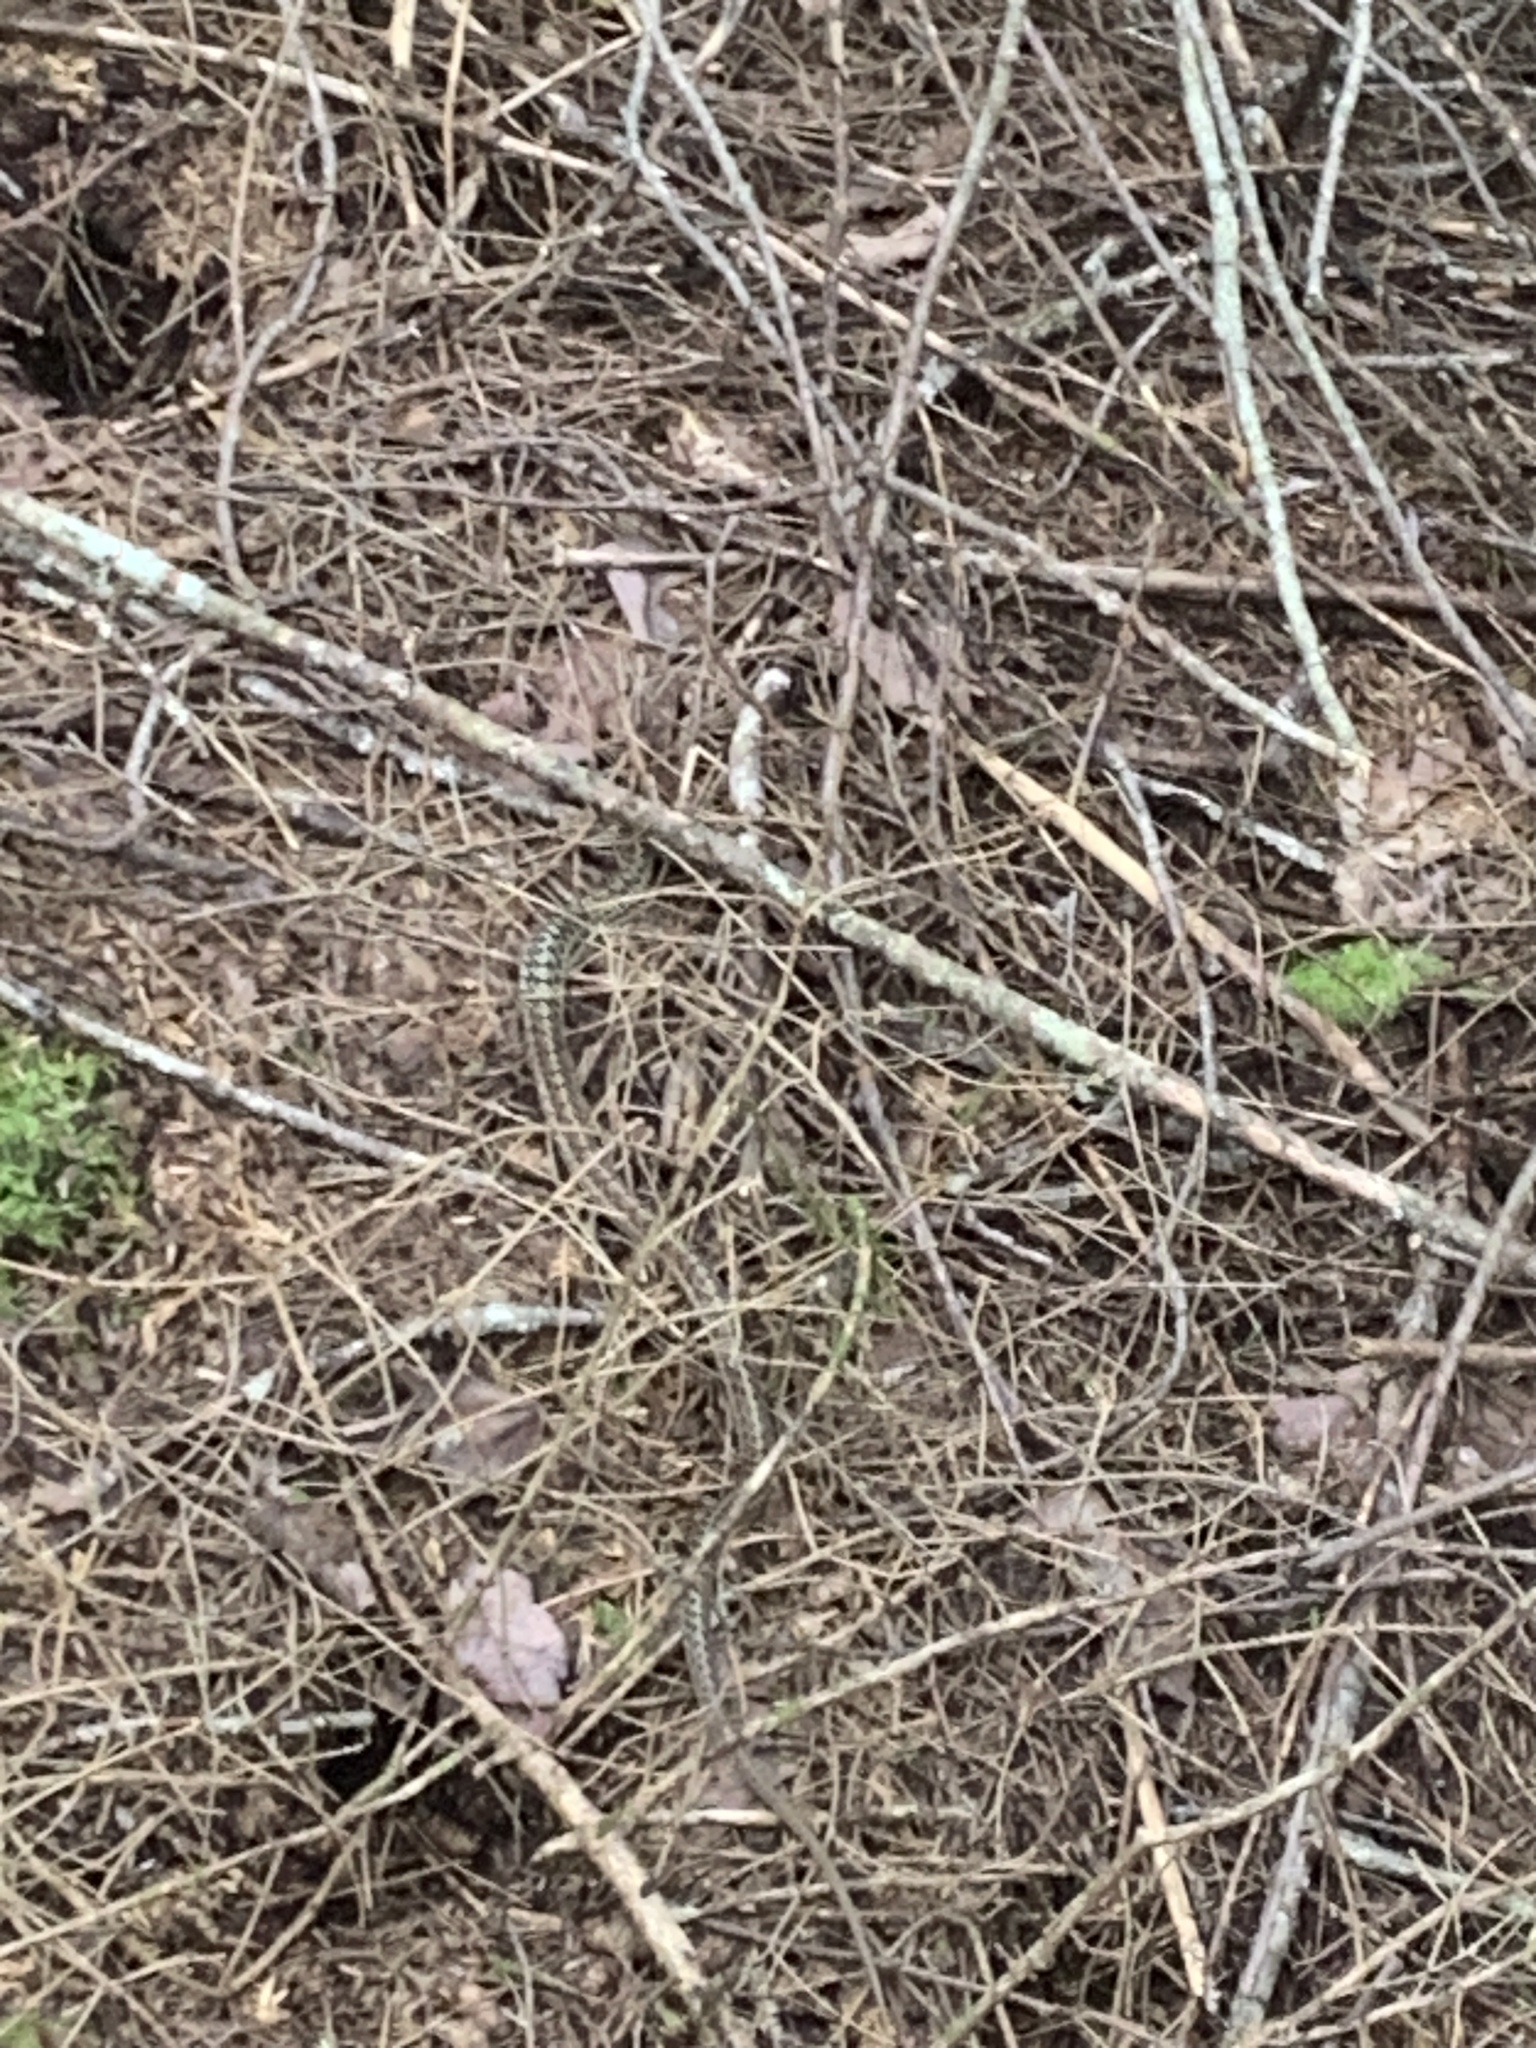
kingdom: Animalia
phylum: Chordata
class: Squamata
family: Colubridae
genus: Thamnophis
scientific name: Thamnophis sirtalis
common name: Common garter snake
